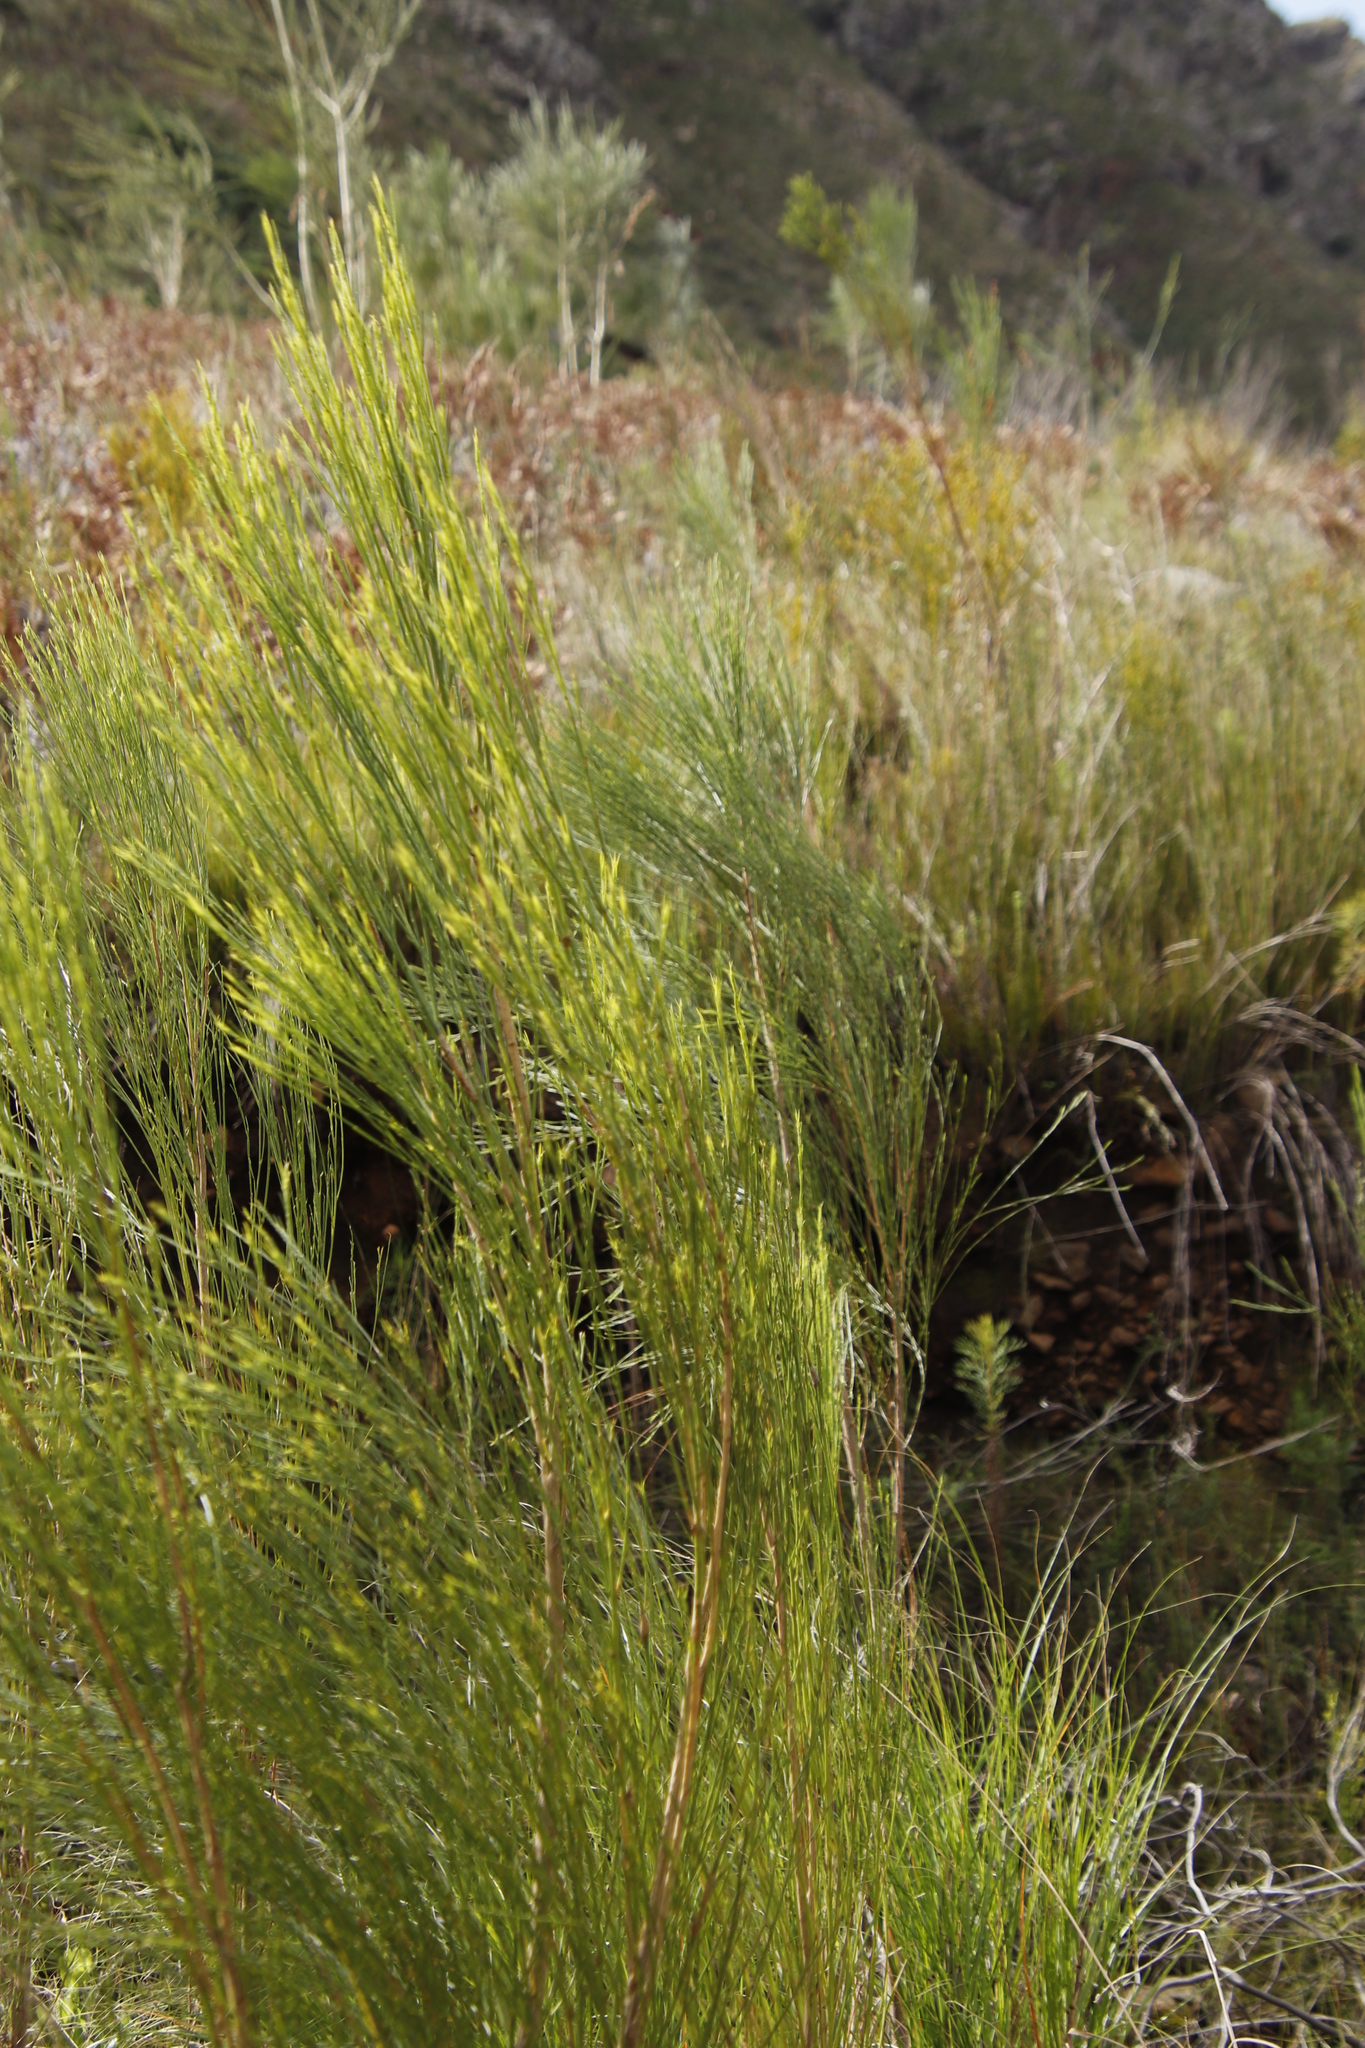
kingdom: Plantae
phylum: Tracheophyta
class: Magnoliopsida
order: Fabales
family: Fabaceae
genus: Psoralea
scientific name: Psoralea usitata
